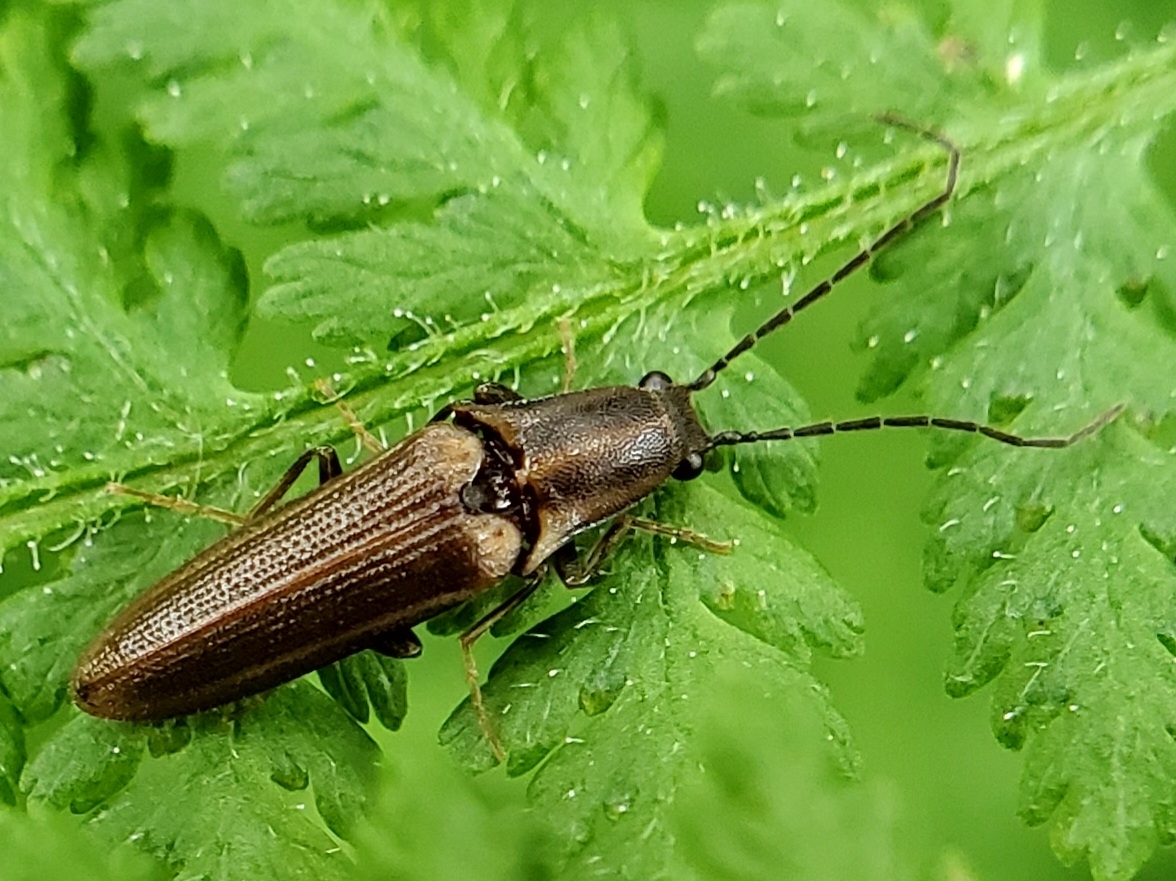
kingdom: Animalia
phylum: Arthropoda
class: Insecta
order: Coleoptera
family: Elateridae
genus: Euplastius
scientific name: Euplastius
